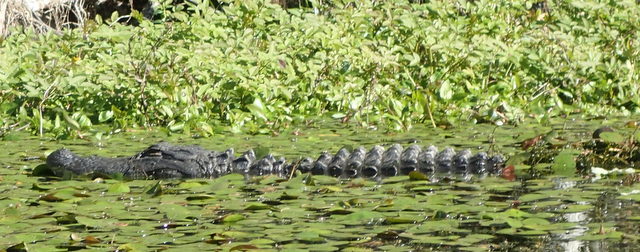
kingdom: Animalia
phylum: Chordata
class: Crocodylia
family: Alligatoridae
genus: Alligator
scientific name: Alligator mississippiensis
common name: American alligator
